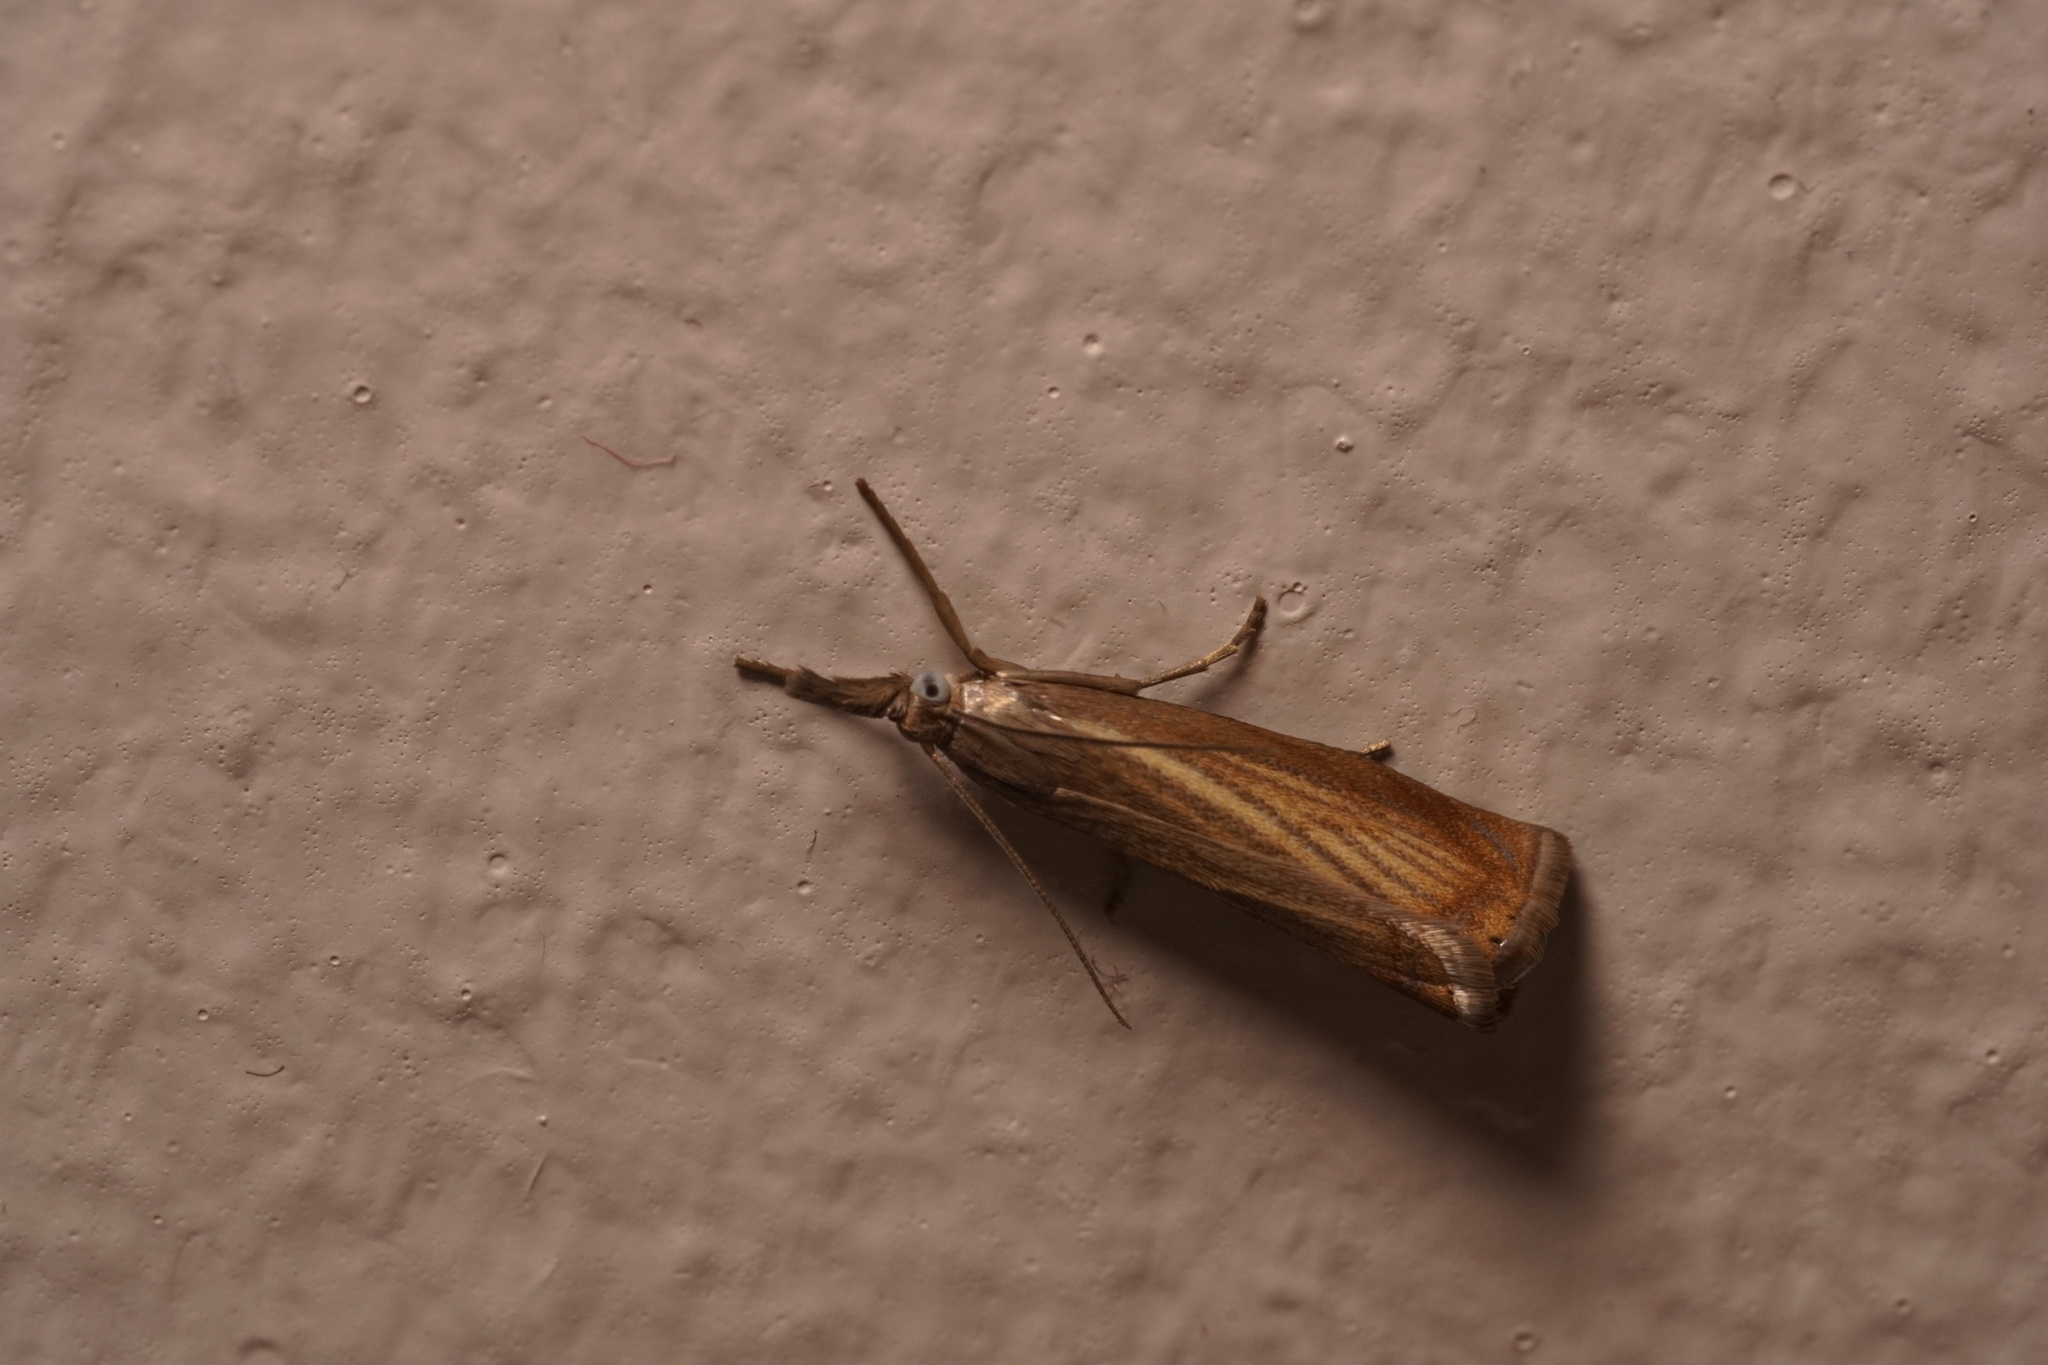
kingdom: Animalia
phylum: Arthropoda
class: Insecta
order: Lepidoptera
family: Crambidae
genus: Chrysoteuchia
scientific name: Chrysoteuchia culmella
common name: Garden grass-veneer
